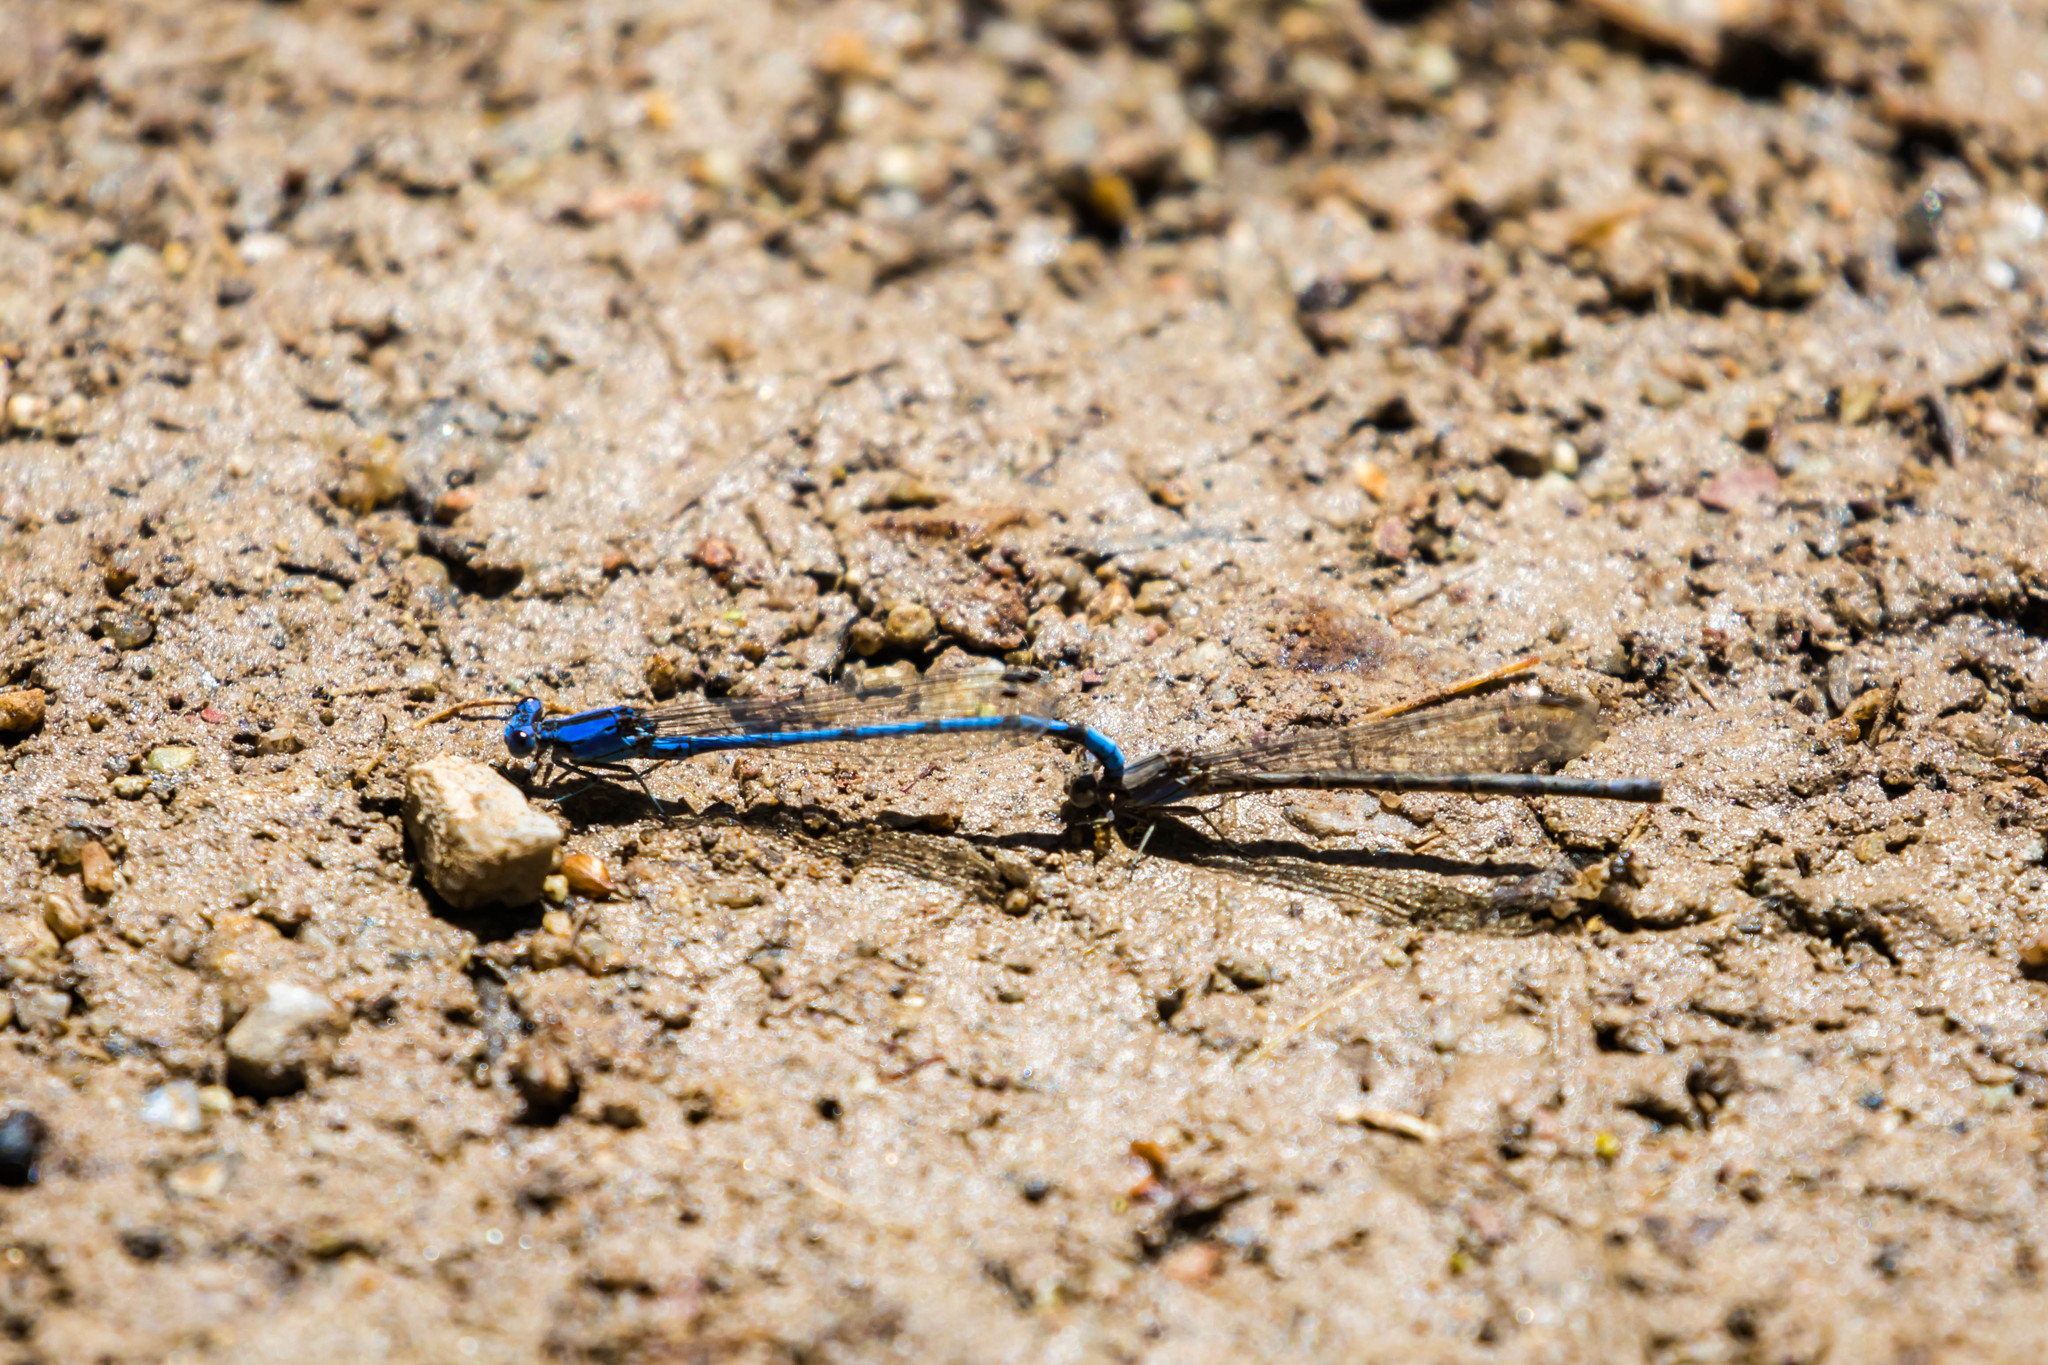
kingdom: Animalia
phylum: Arthropoda
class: Insecta
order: Odonata
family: Coenagrionidae
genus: Argia
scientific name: Argia extranea
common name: Spine-tipped dancer
